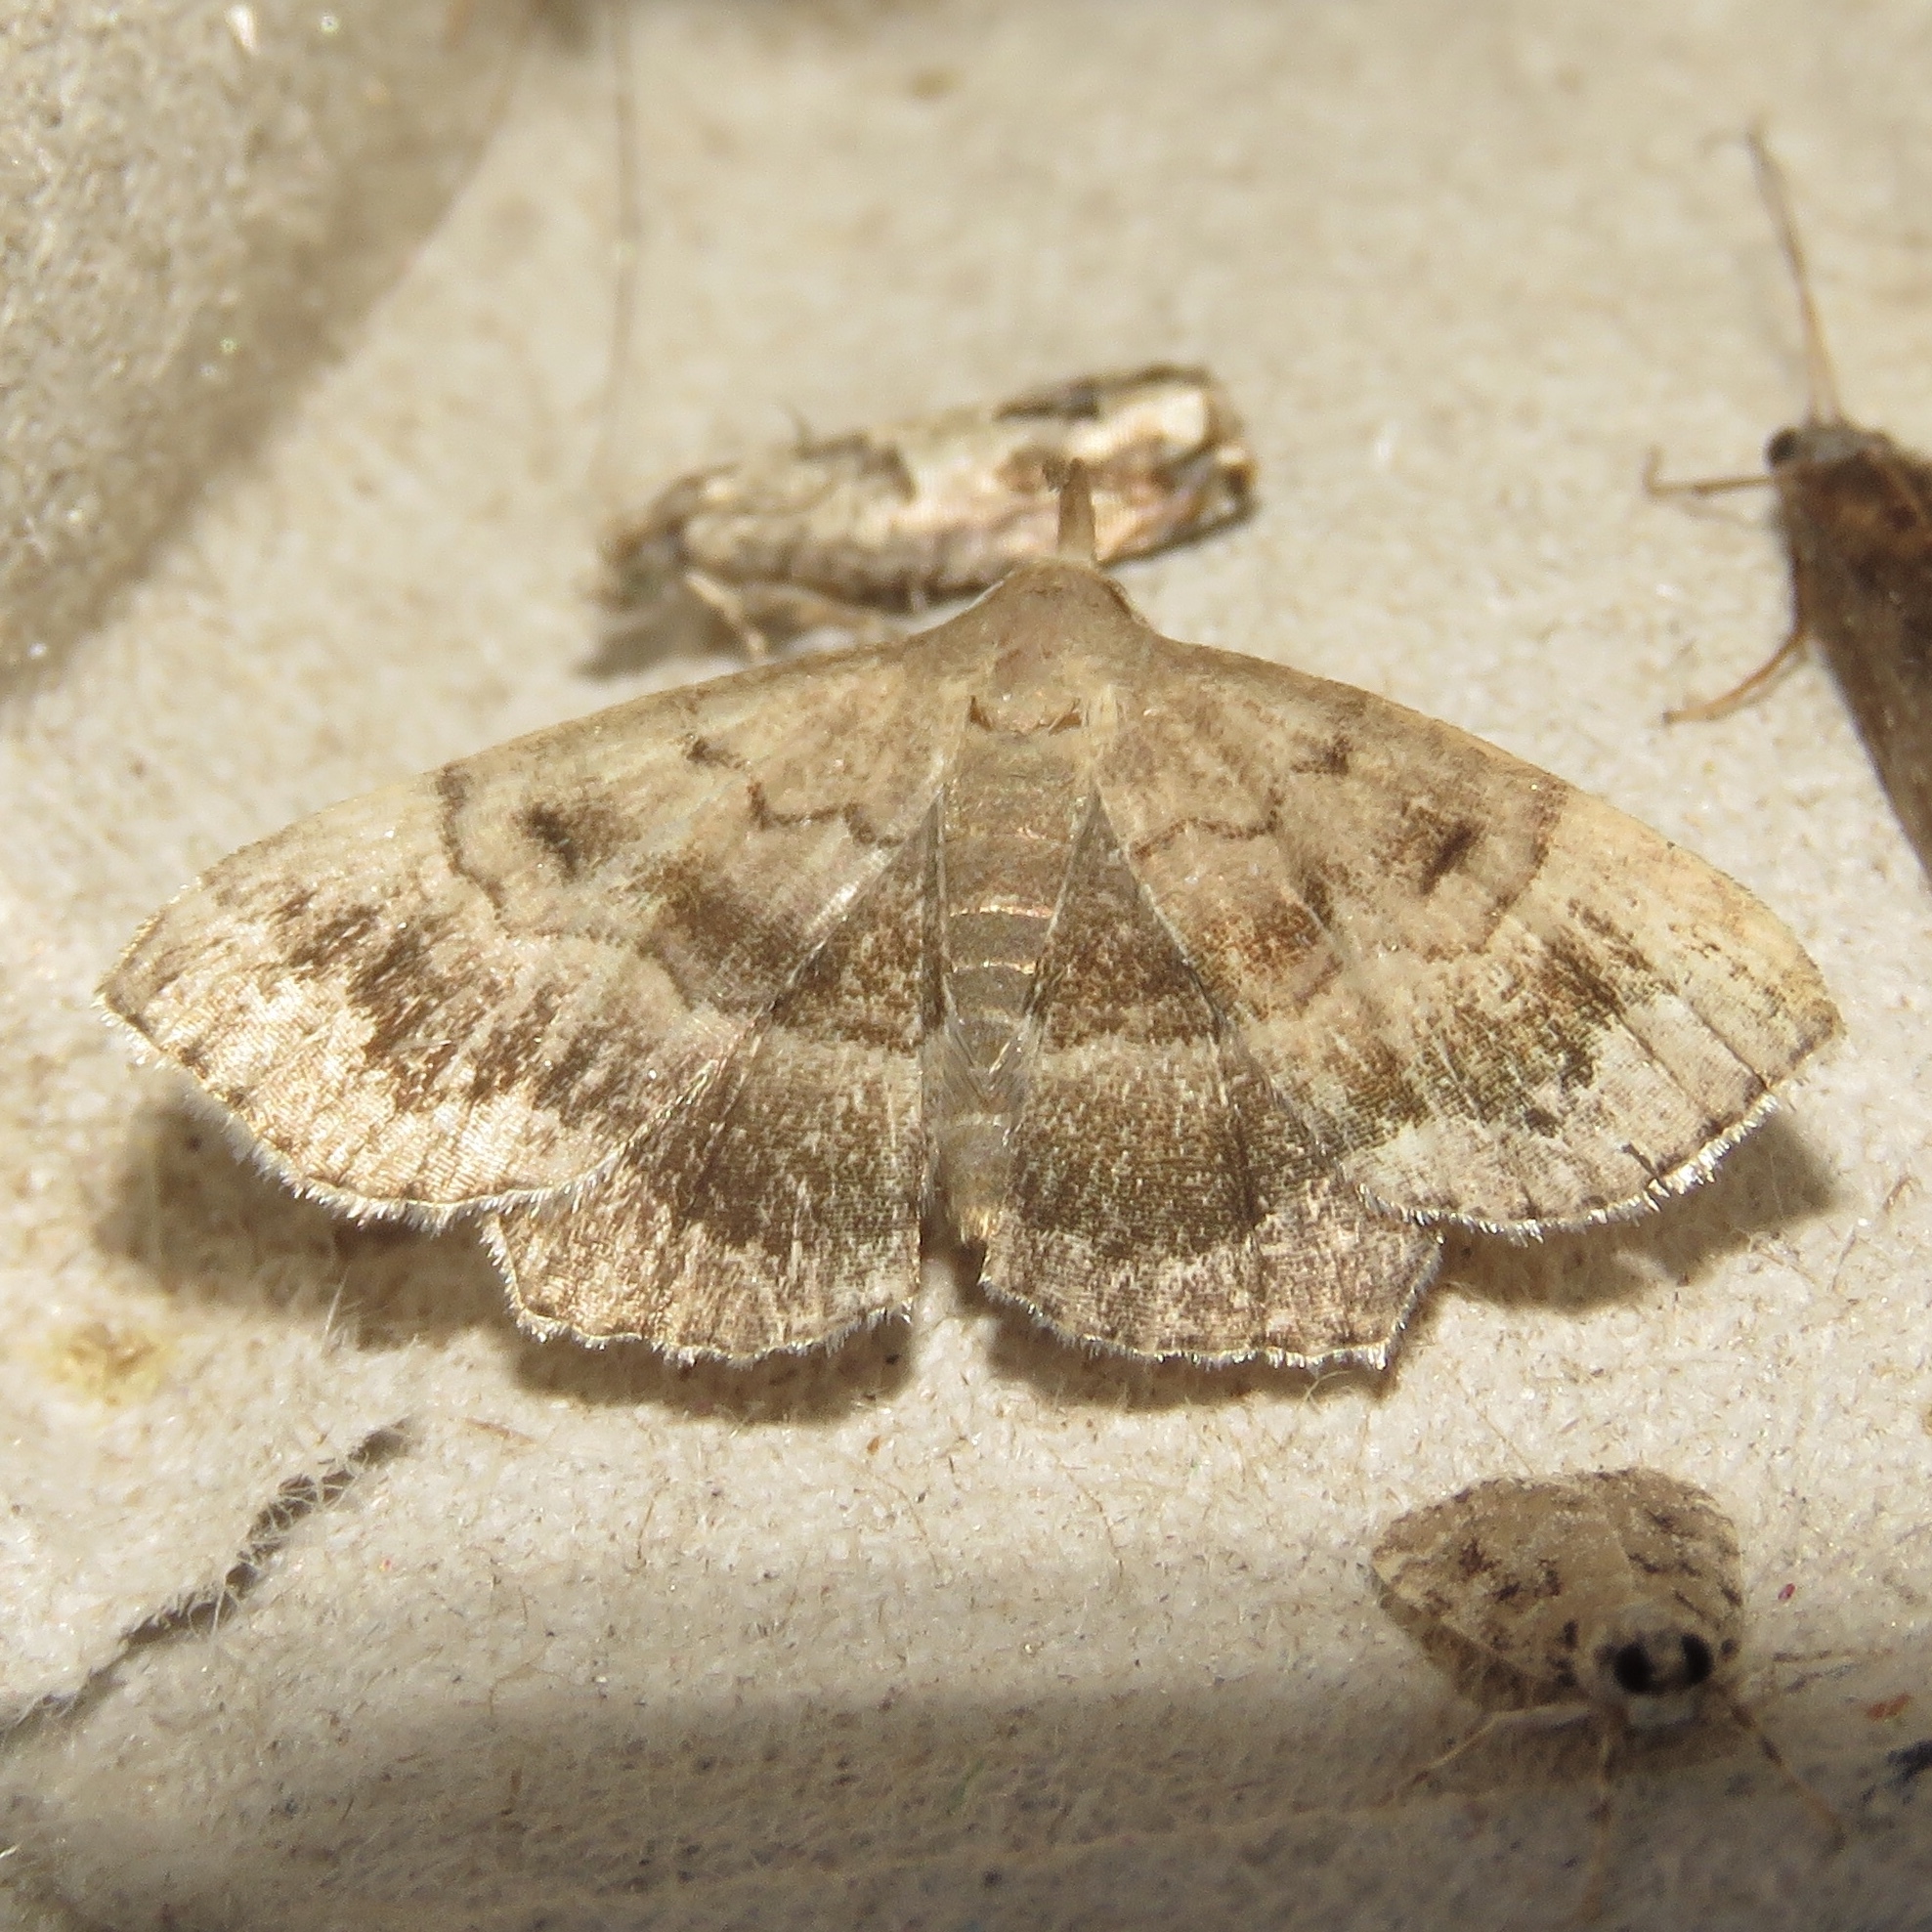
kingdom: Animalia
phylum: Arthropoda
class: Insecta
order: Lepidoptera
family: Erebidae
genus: Phalaenostola
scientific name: Phalaenostola larentioides
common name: Black-banded owlet
